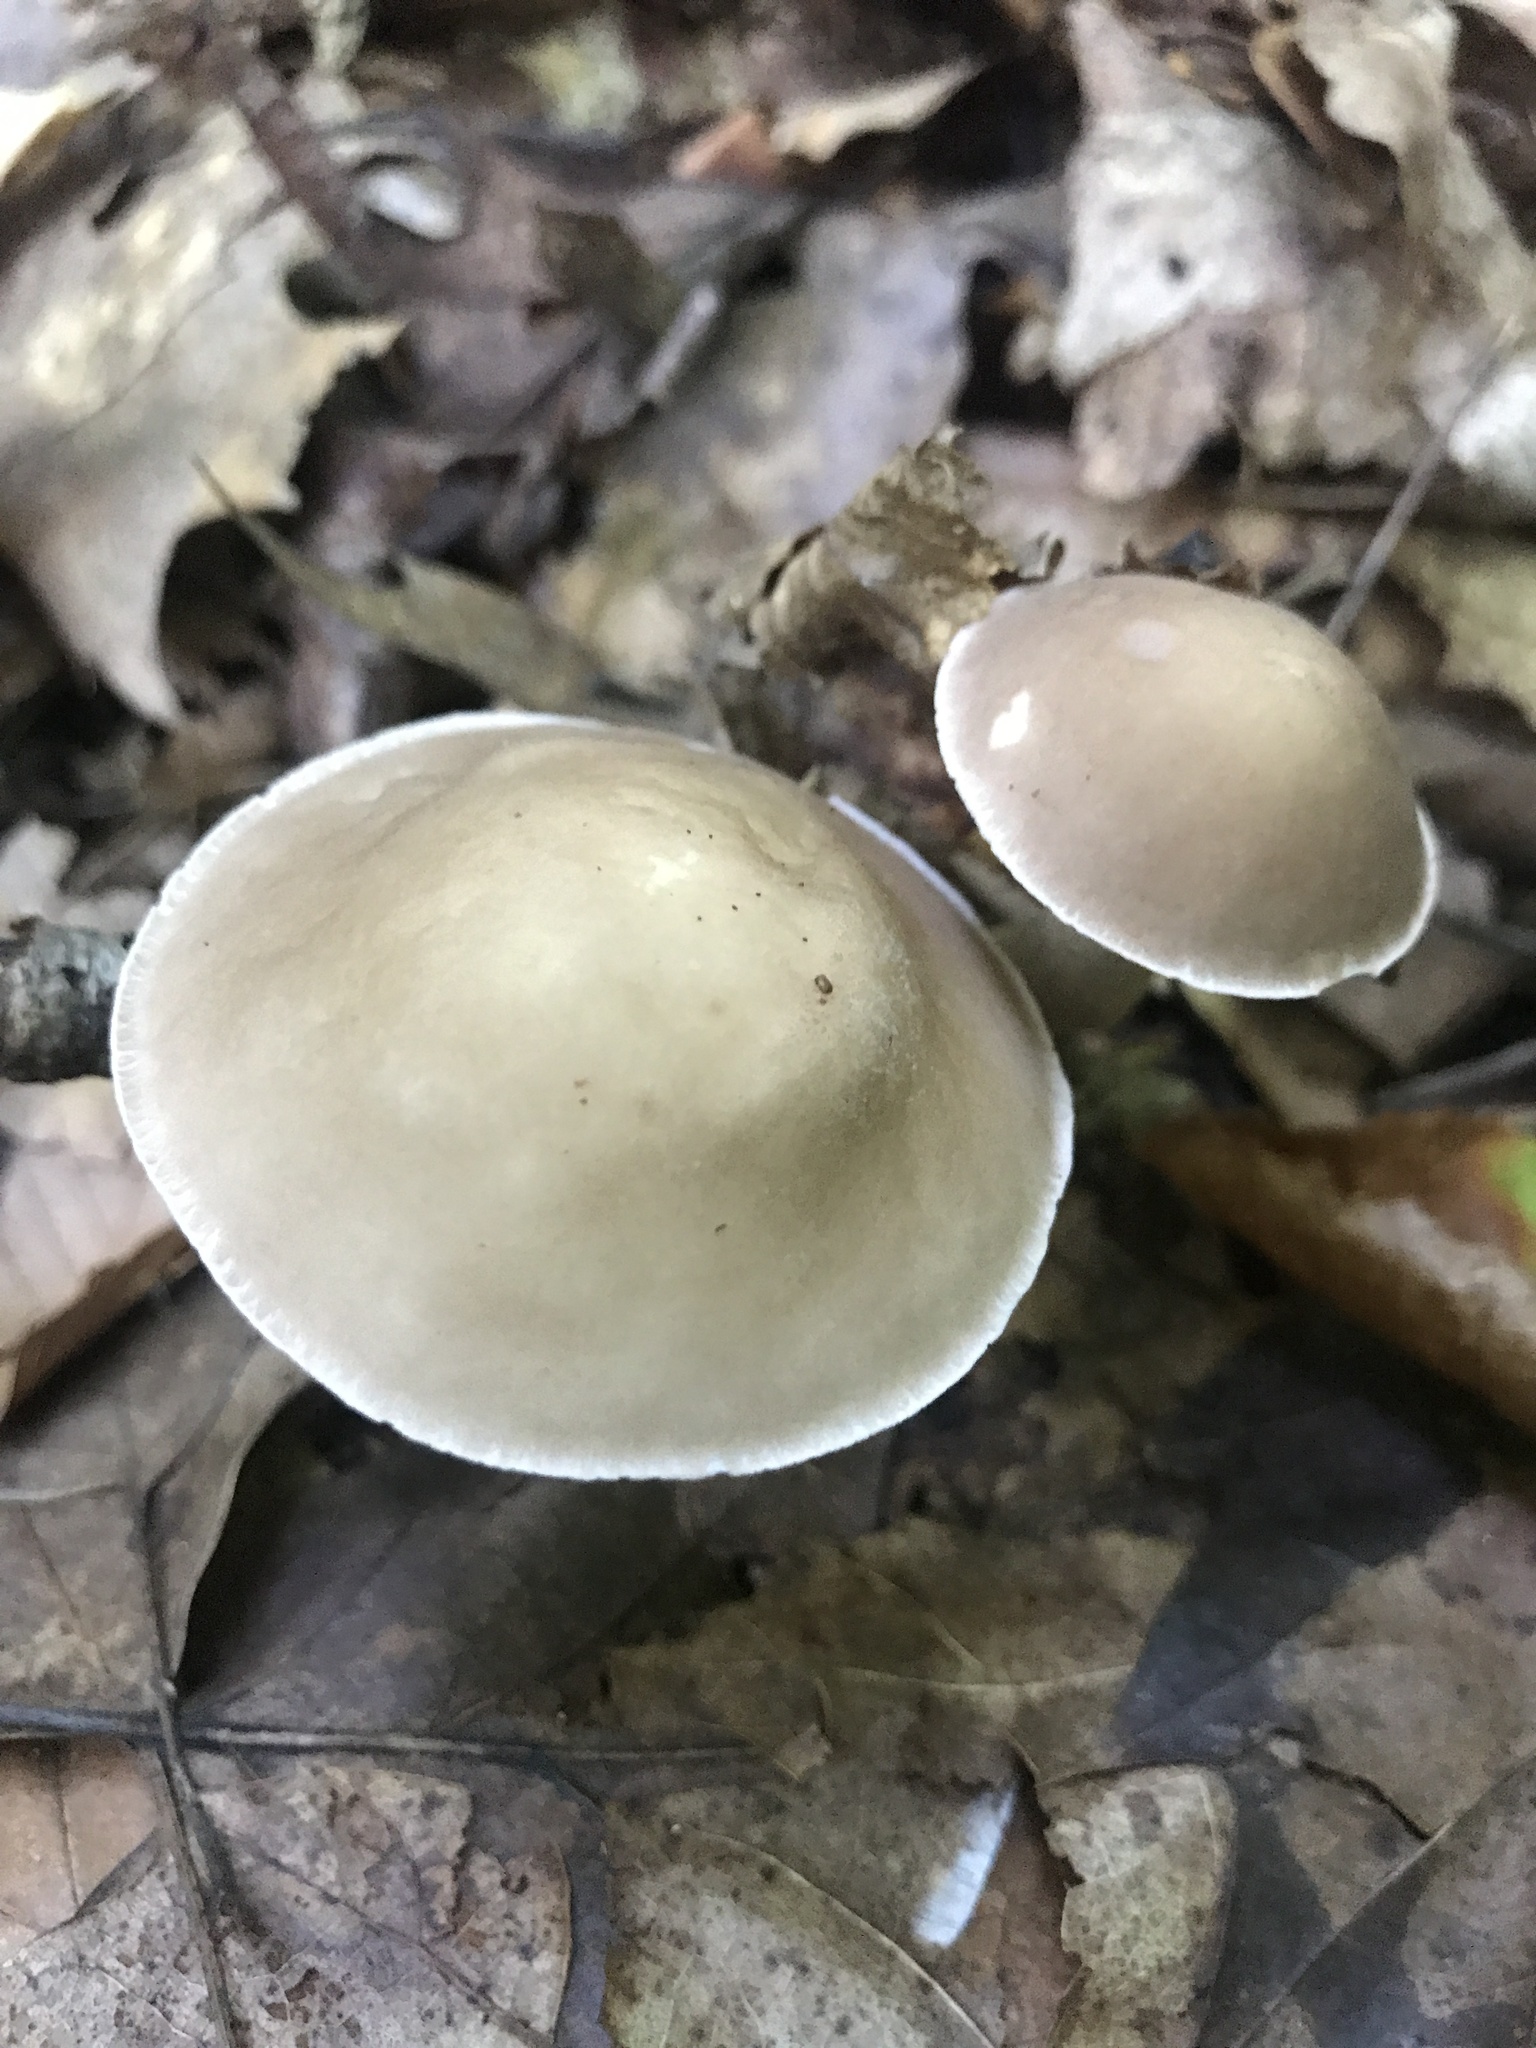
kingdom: Fungi
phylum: Basidiomycota
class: Agaricomycetes
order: Boletales
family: Boletaceae
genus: Leccinellum
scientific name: Leccinellum albellum
